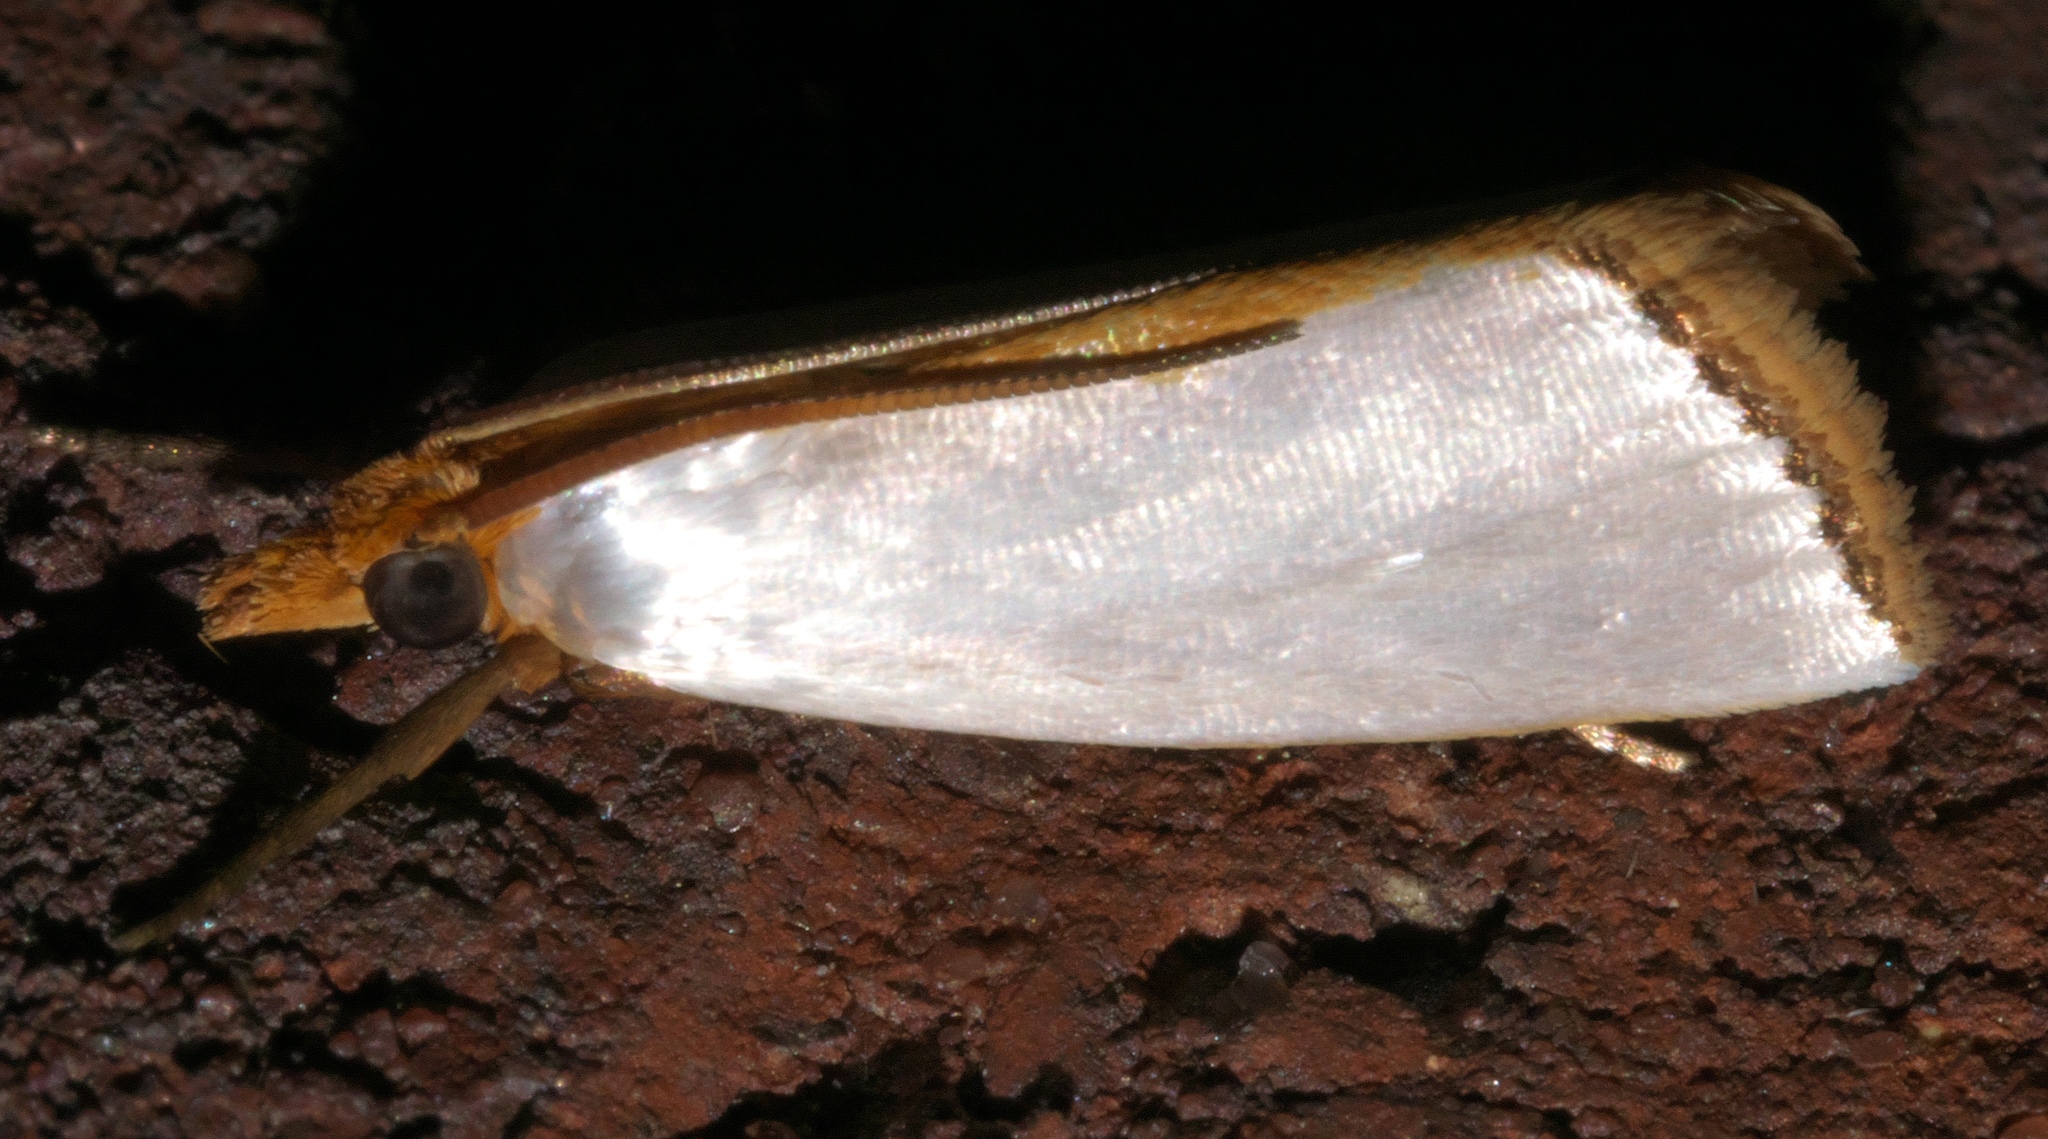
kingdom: Animalia
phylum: Arthropoda
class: Insecta
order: Lepidoptera
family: Crambidae
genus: Argyria
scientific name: Argyria
